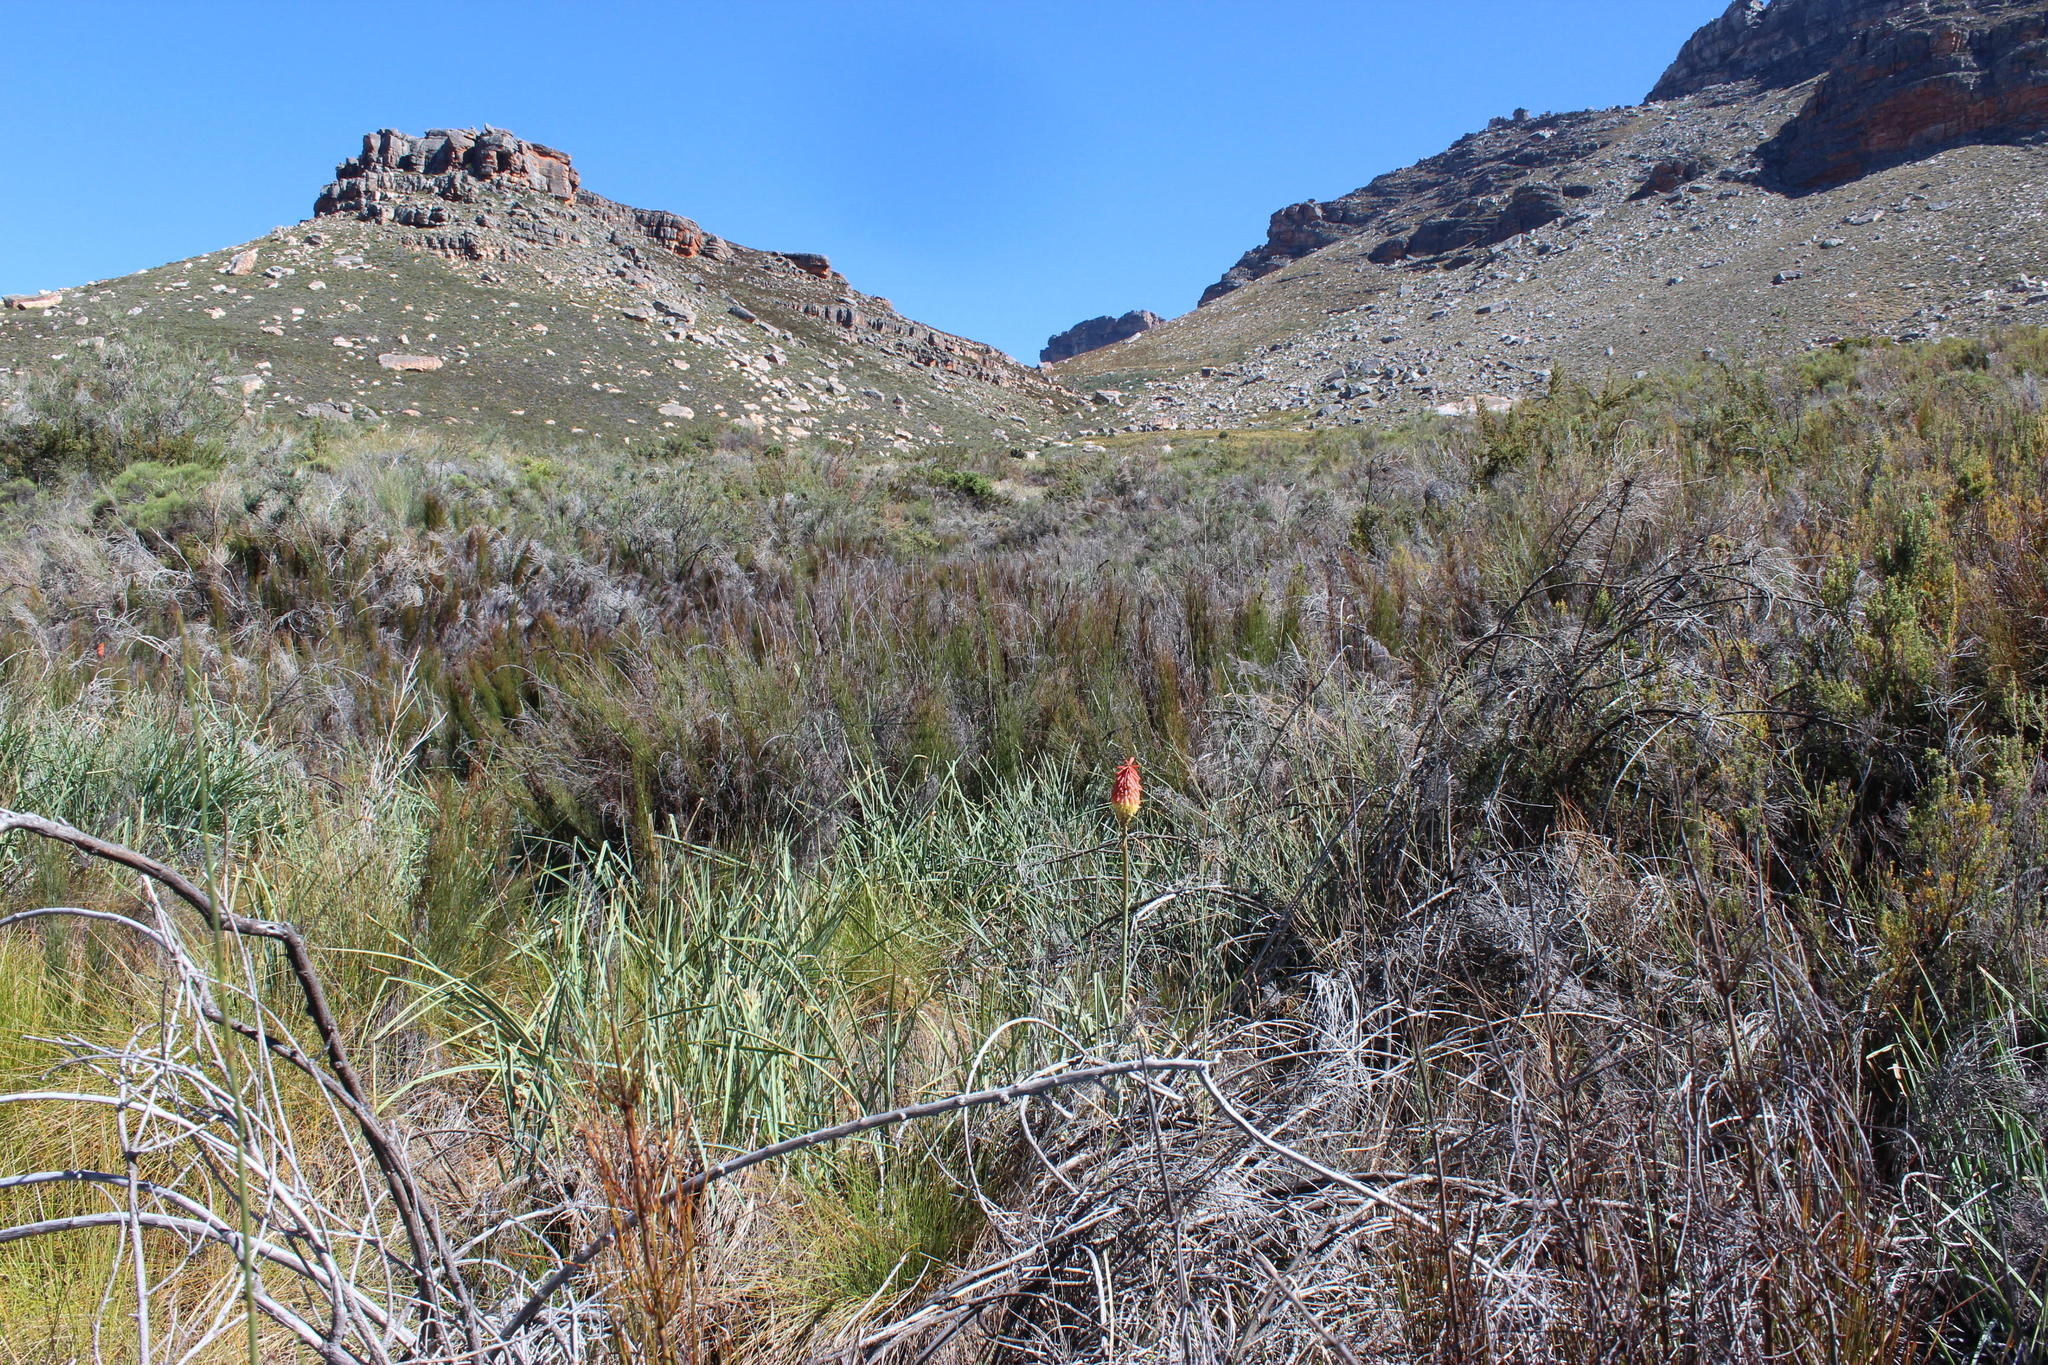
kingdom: Plantae
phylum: Tracheophyta
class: Liliopsida
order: Asparagales
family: Asphodelaceae
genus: Kniphofia
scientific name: Kniphofia uvaria
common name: Red-hot-poker
